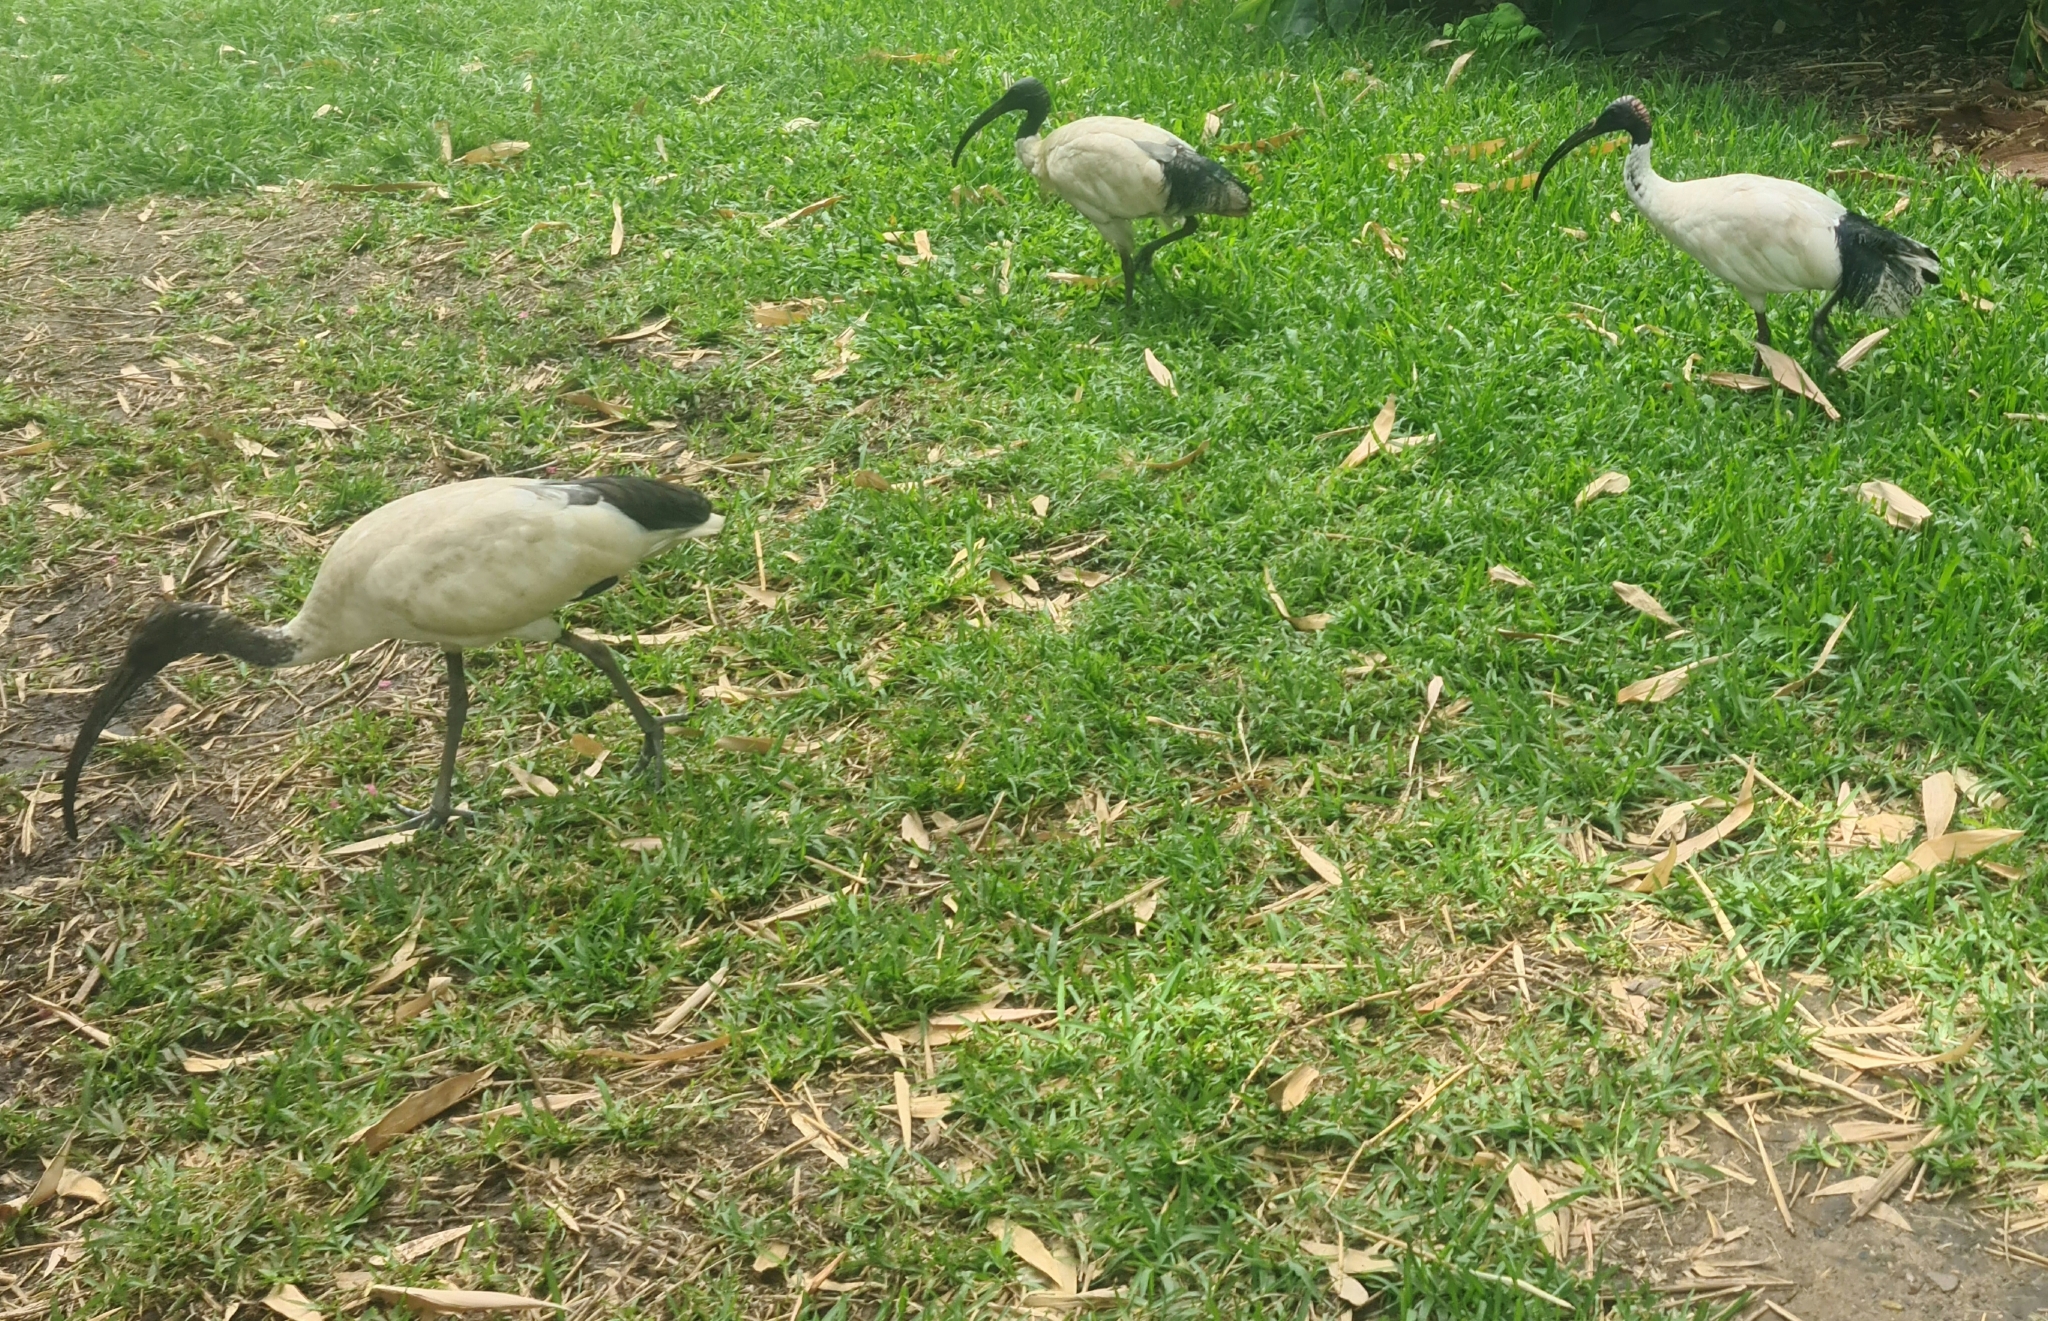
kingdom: Animalia
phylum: Chordata
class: Aves
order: Pelecaniformes
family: Threskiornithidae
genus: Threskiornis
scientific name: Threskiornis molucca
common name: Australian white ibis
